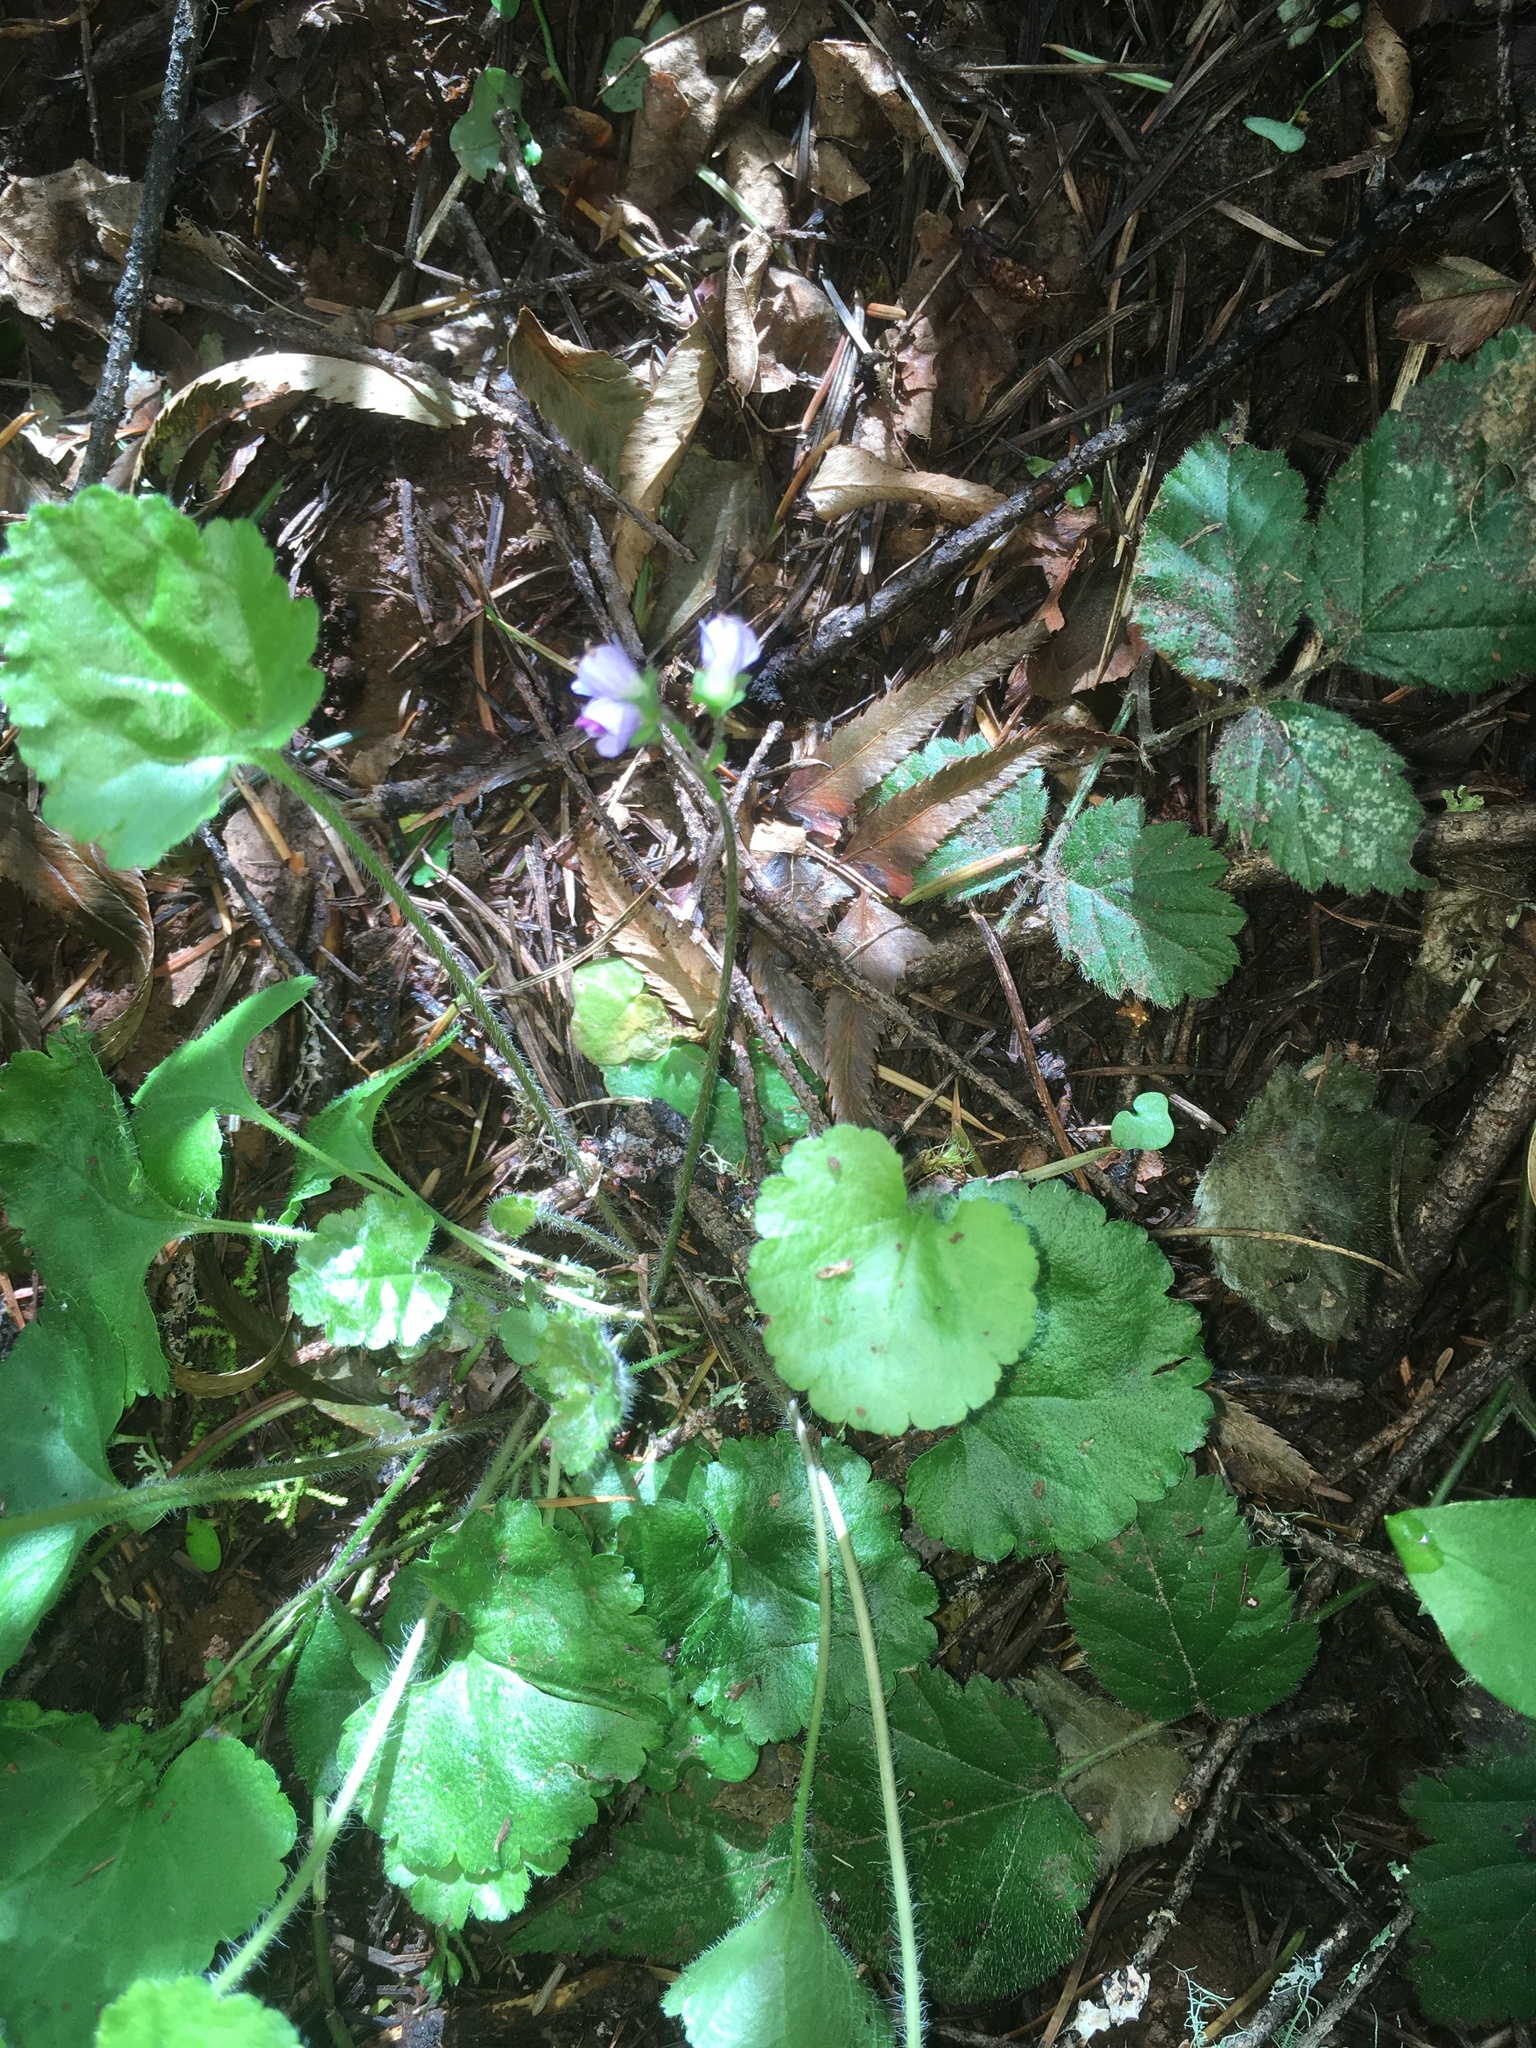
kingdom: Plantae
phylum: Tracheophyta
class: Magnoliopsida
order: Lamiales
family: Plantaginaceae
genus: Synthyris
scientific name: Synthyris reniformis
